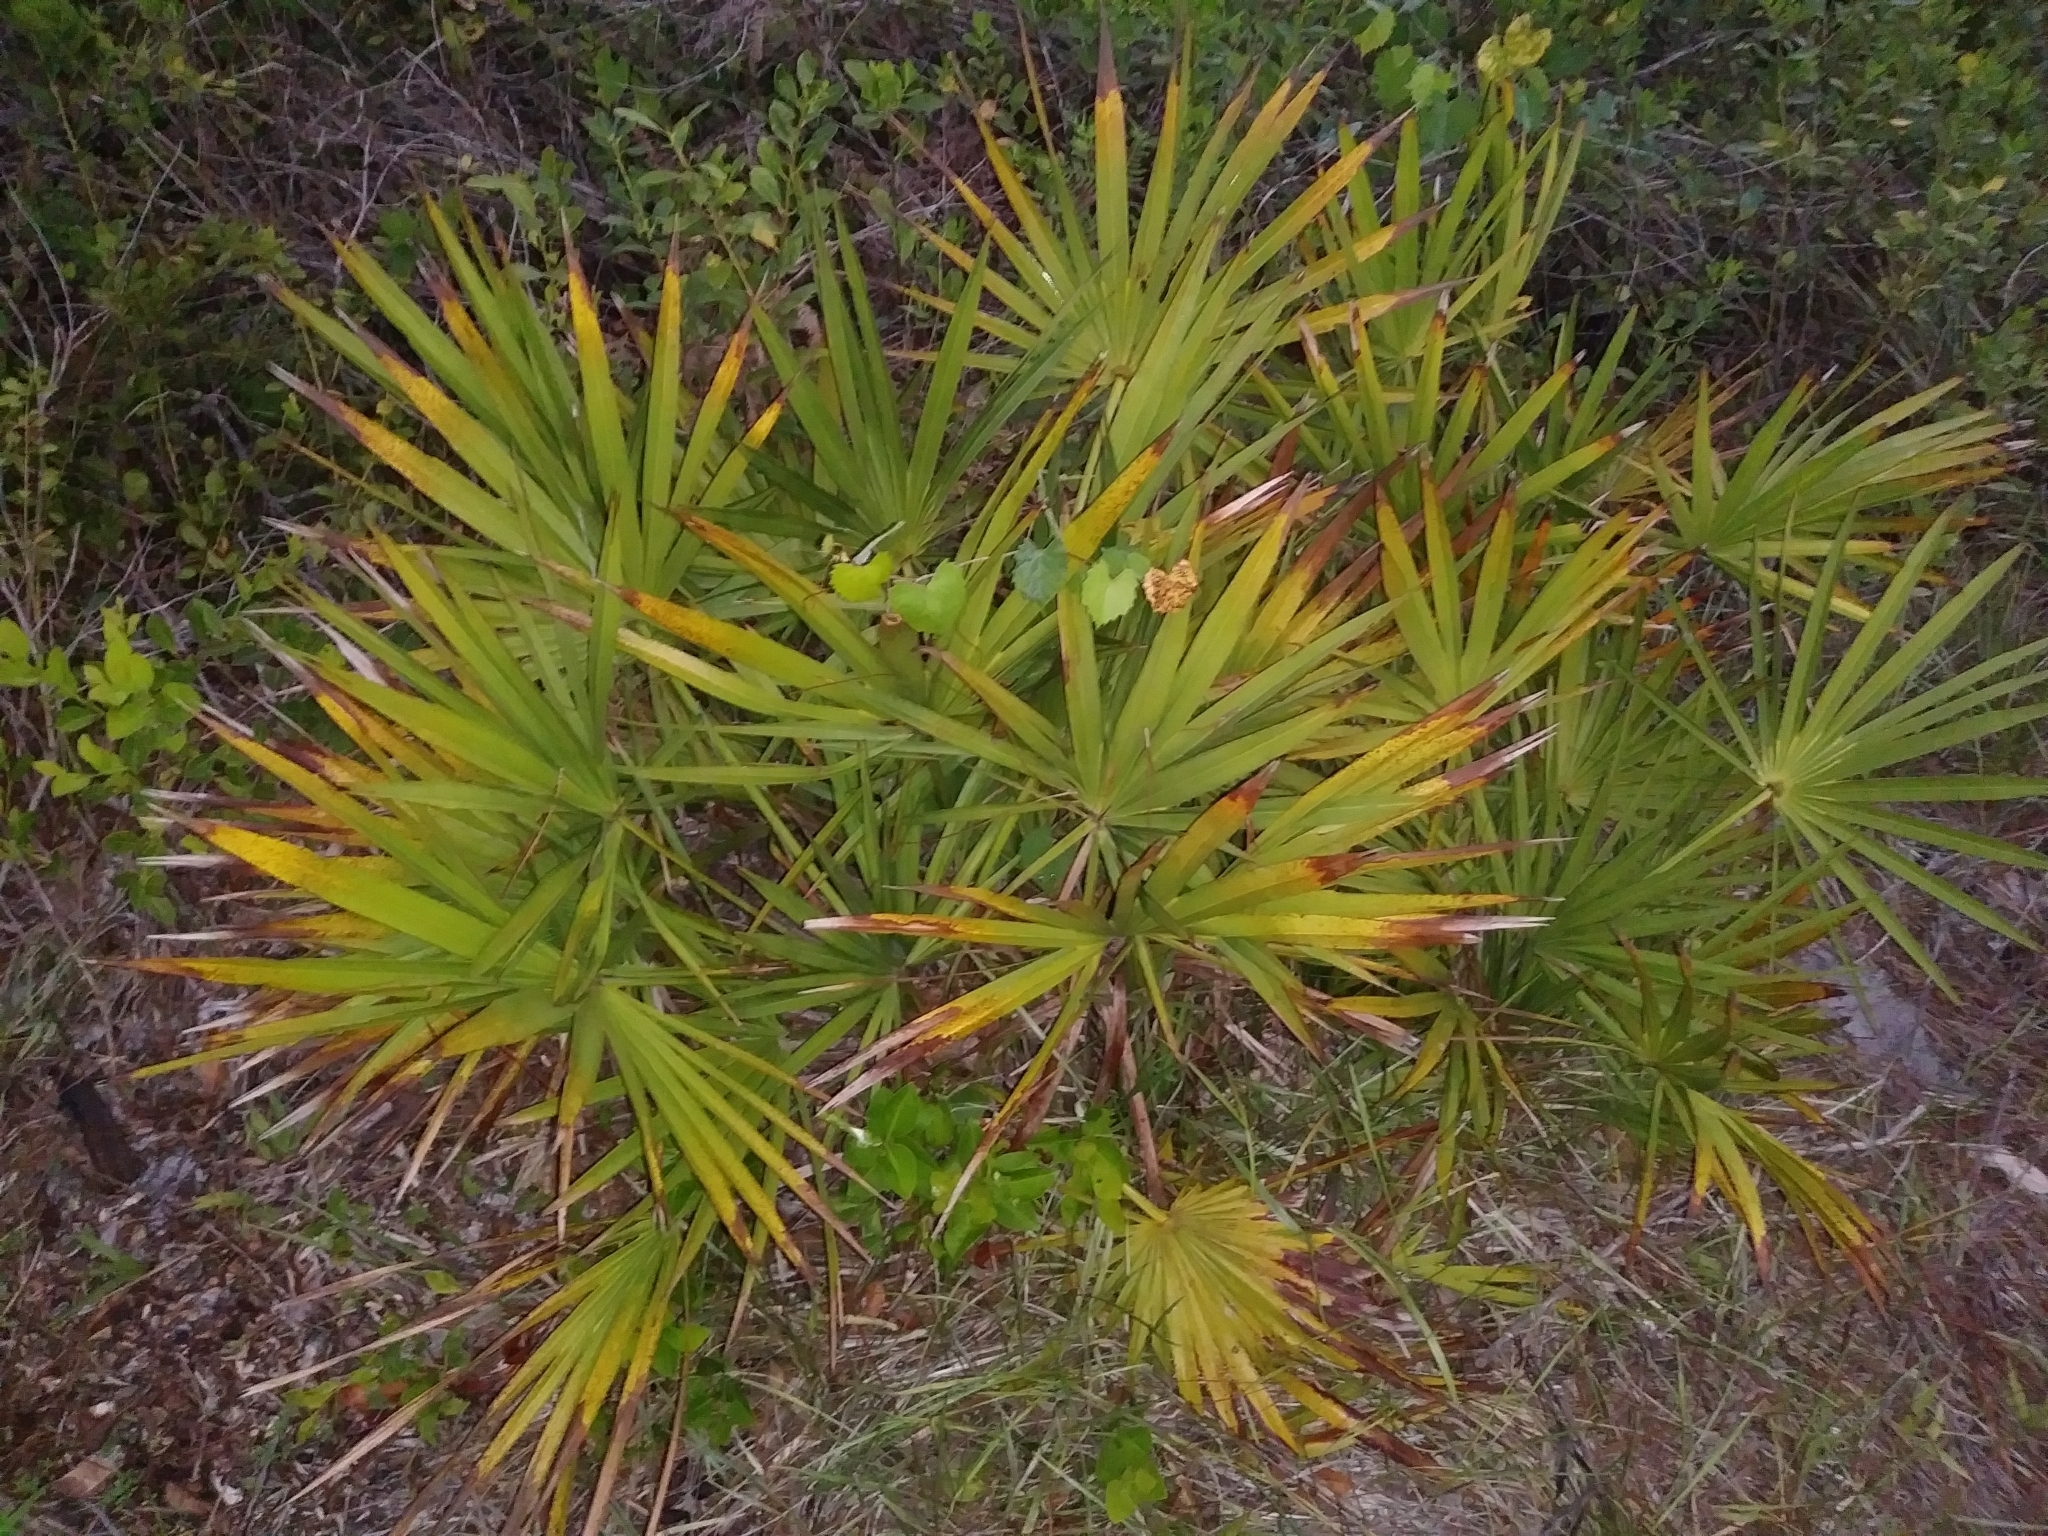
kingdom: Plantae
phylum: Tracheophyta
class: Liliopsida
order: Arecales
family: Arecaceae
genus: Serenoa
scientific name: Serenoa repens
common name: Saw-palmetto
